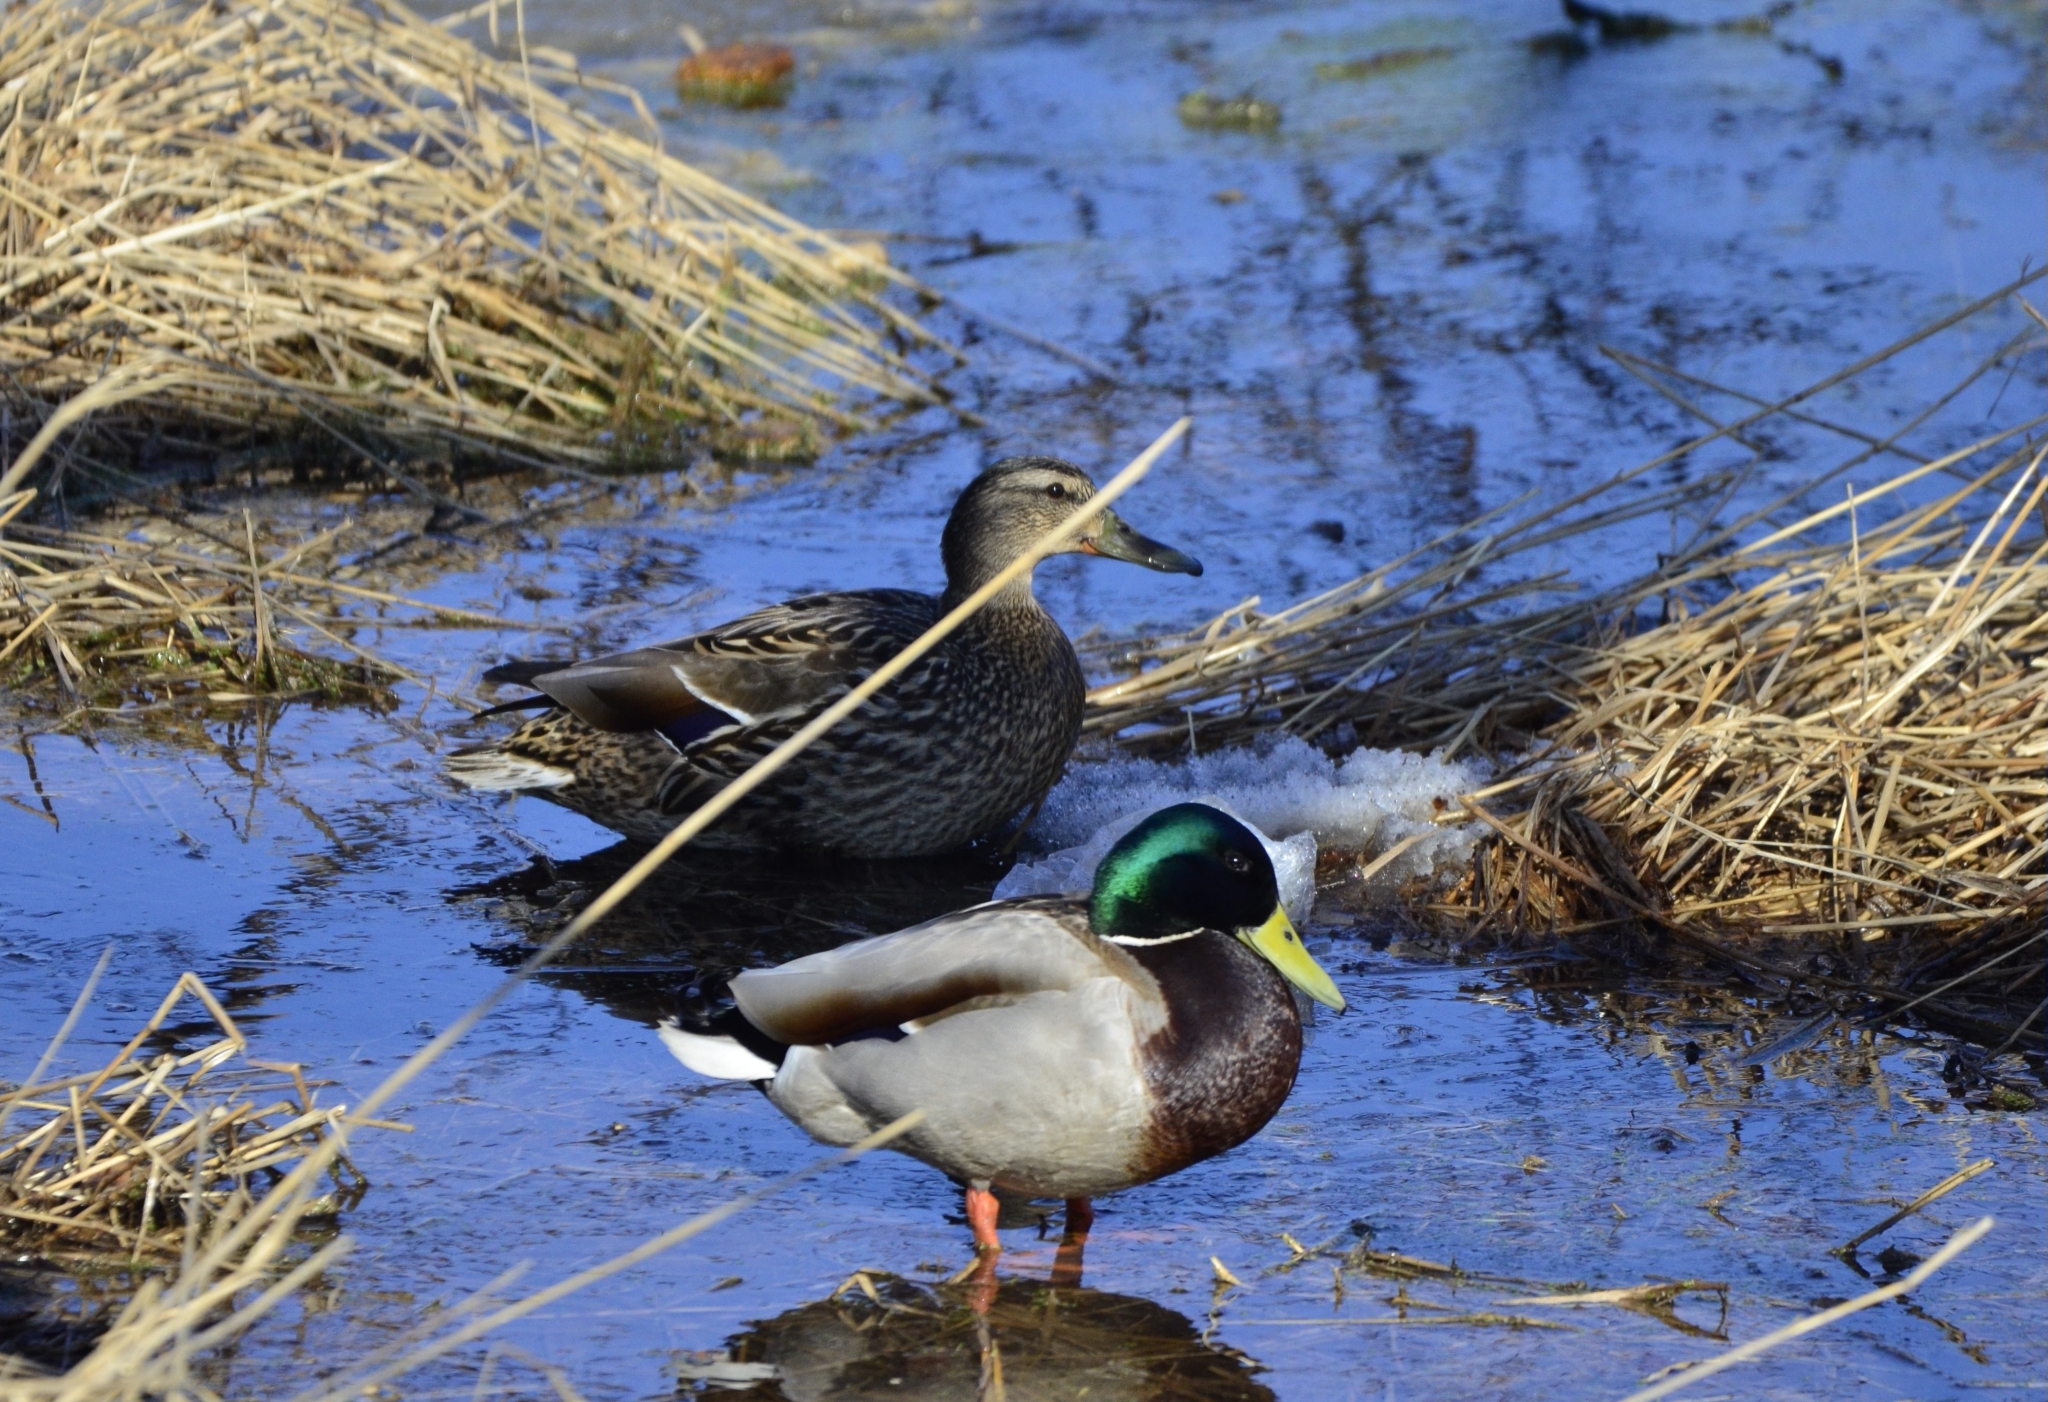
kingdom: Animalia
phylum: Chordata
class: Aves
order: Anseriformes
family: Anatidae
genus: Anas
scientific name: Anas platyrhynchos
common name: Mallard
